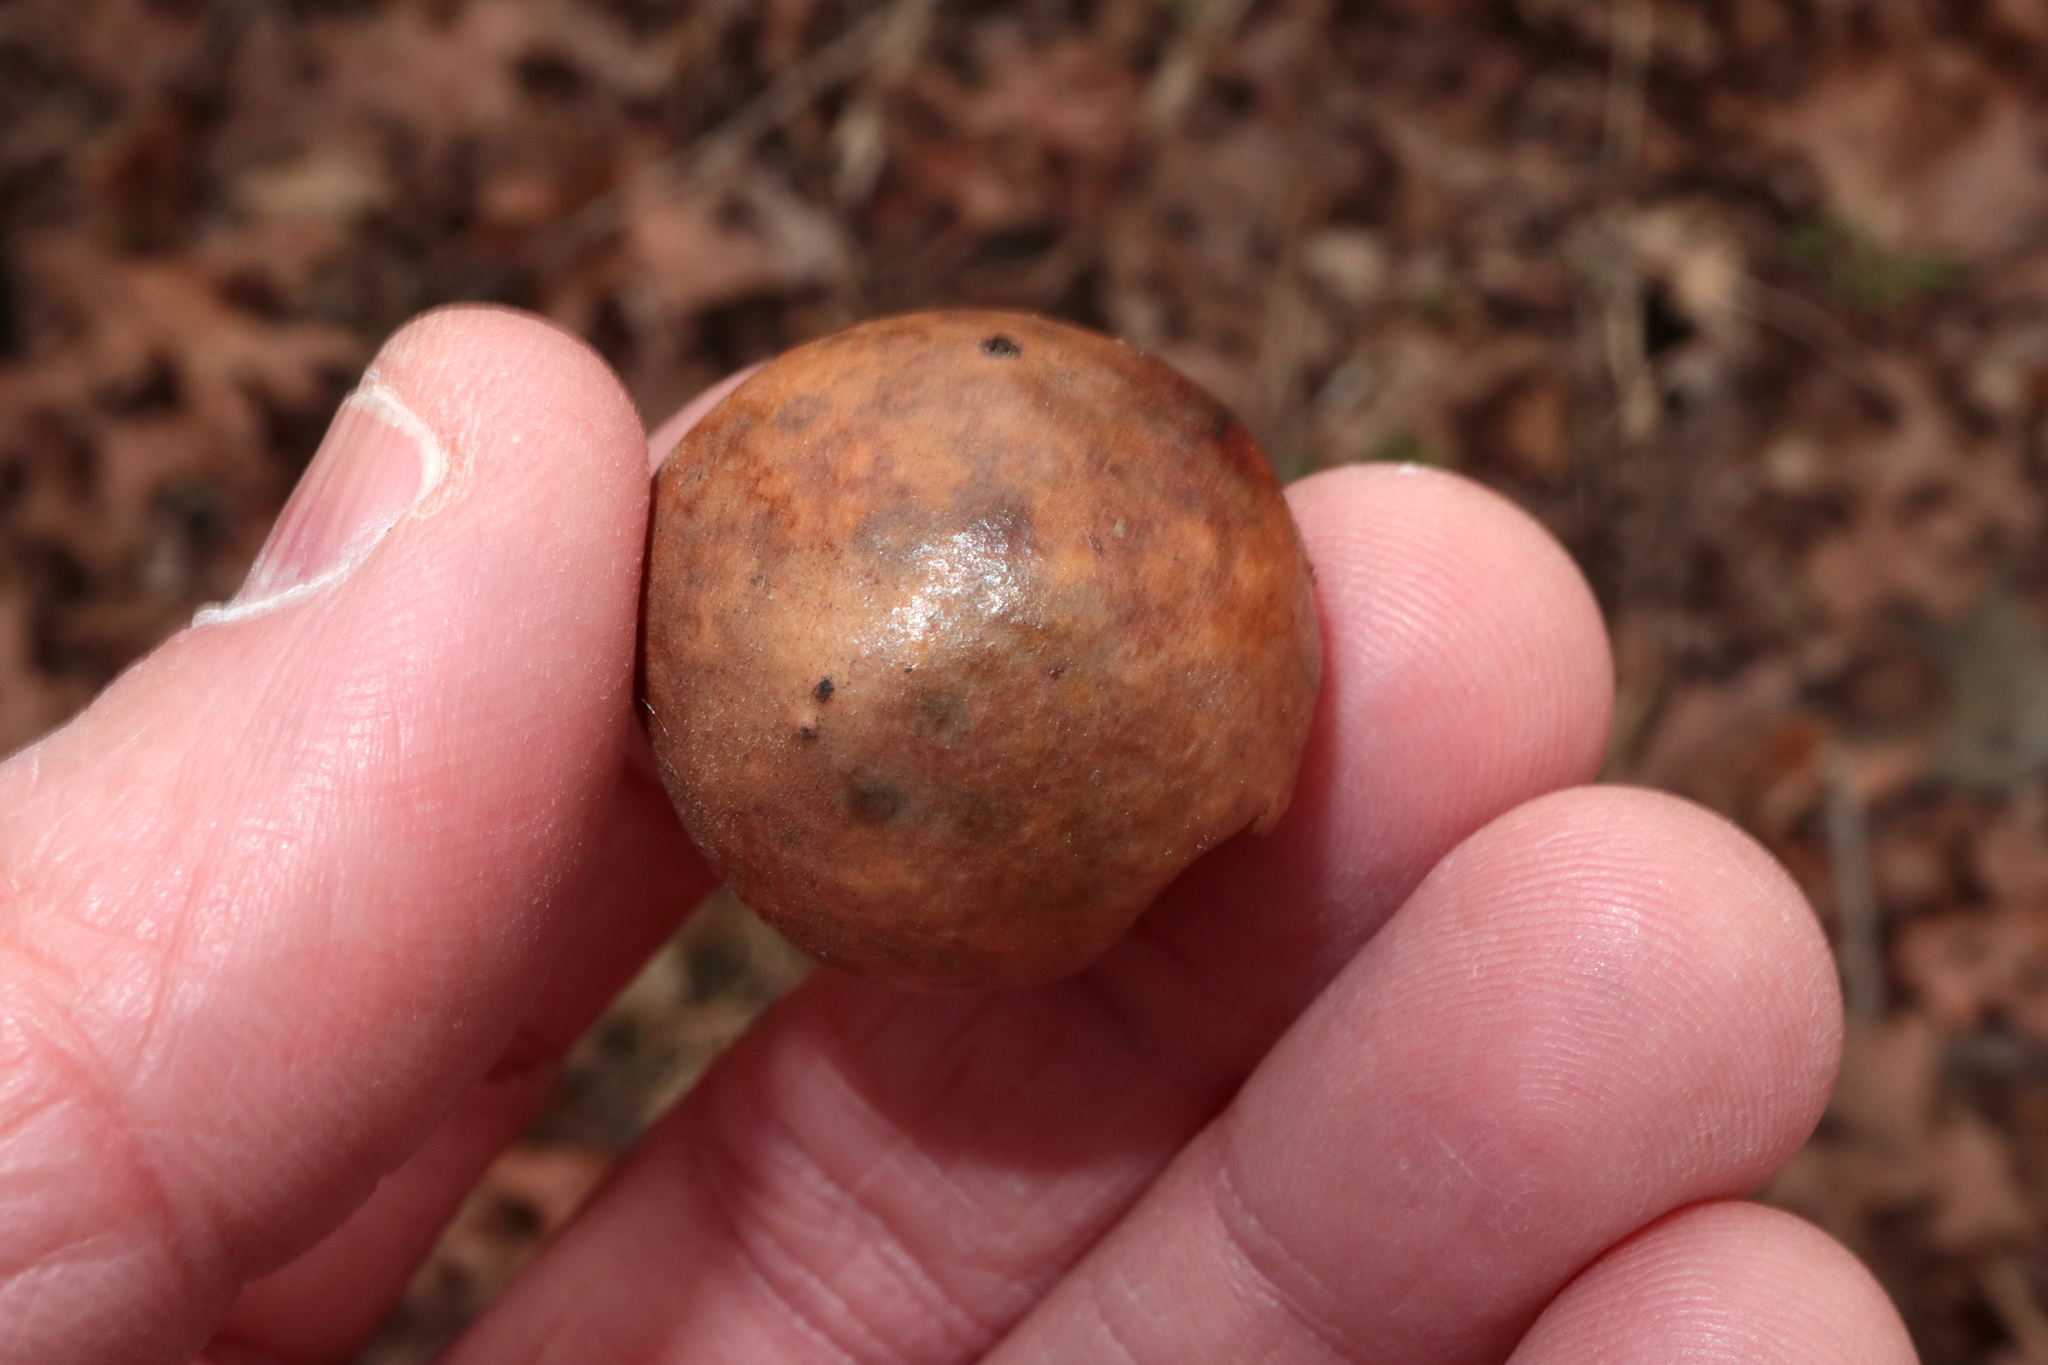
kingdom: Animalia
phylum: Arthropoda
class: Insecta
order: Hymenoptera
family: Cynipidae
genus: Atrusca
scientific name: Atrusca
